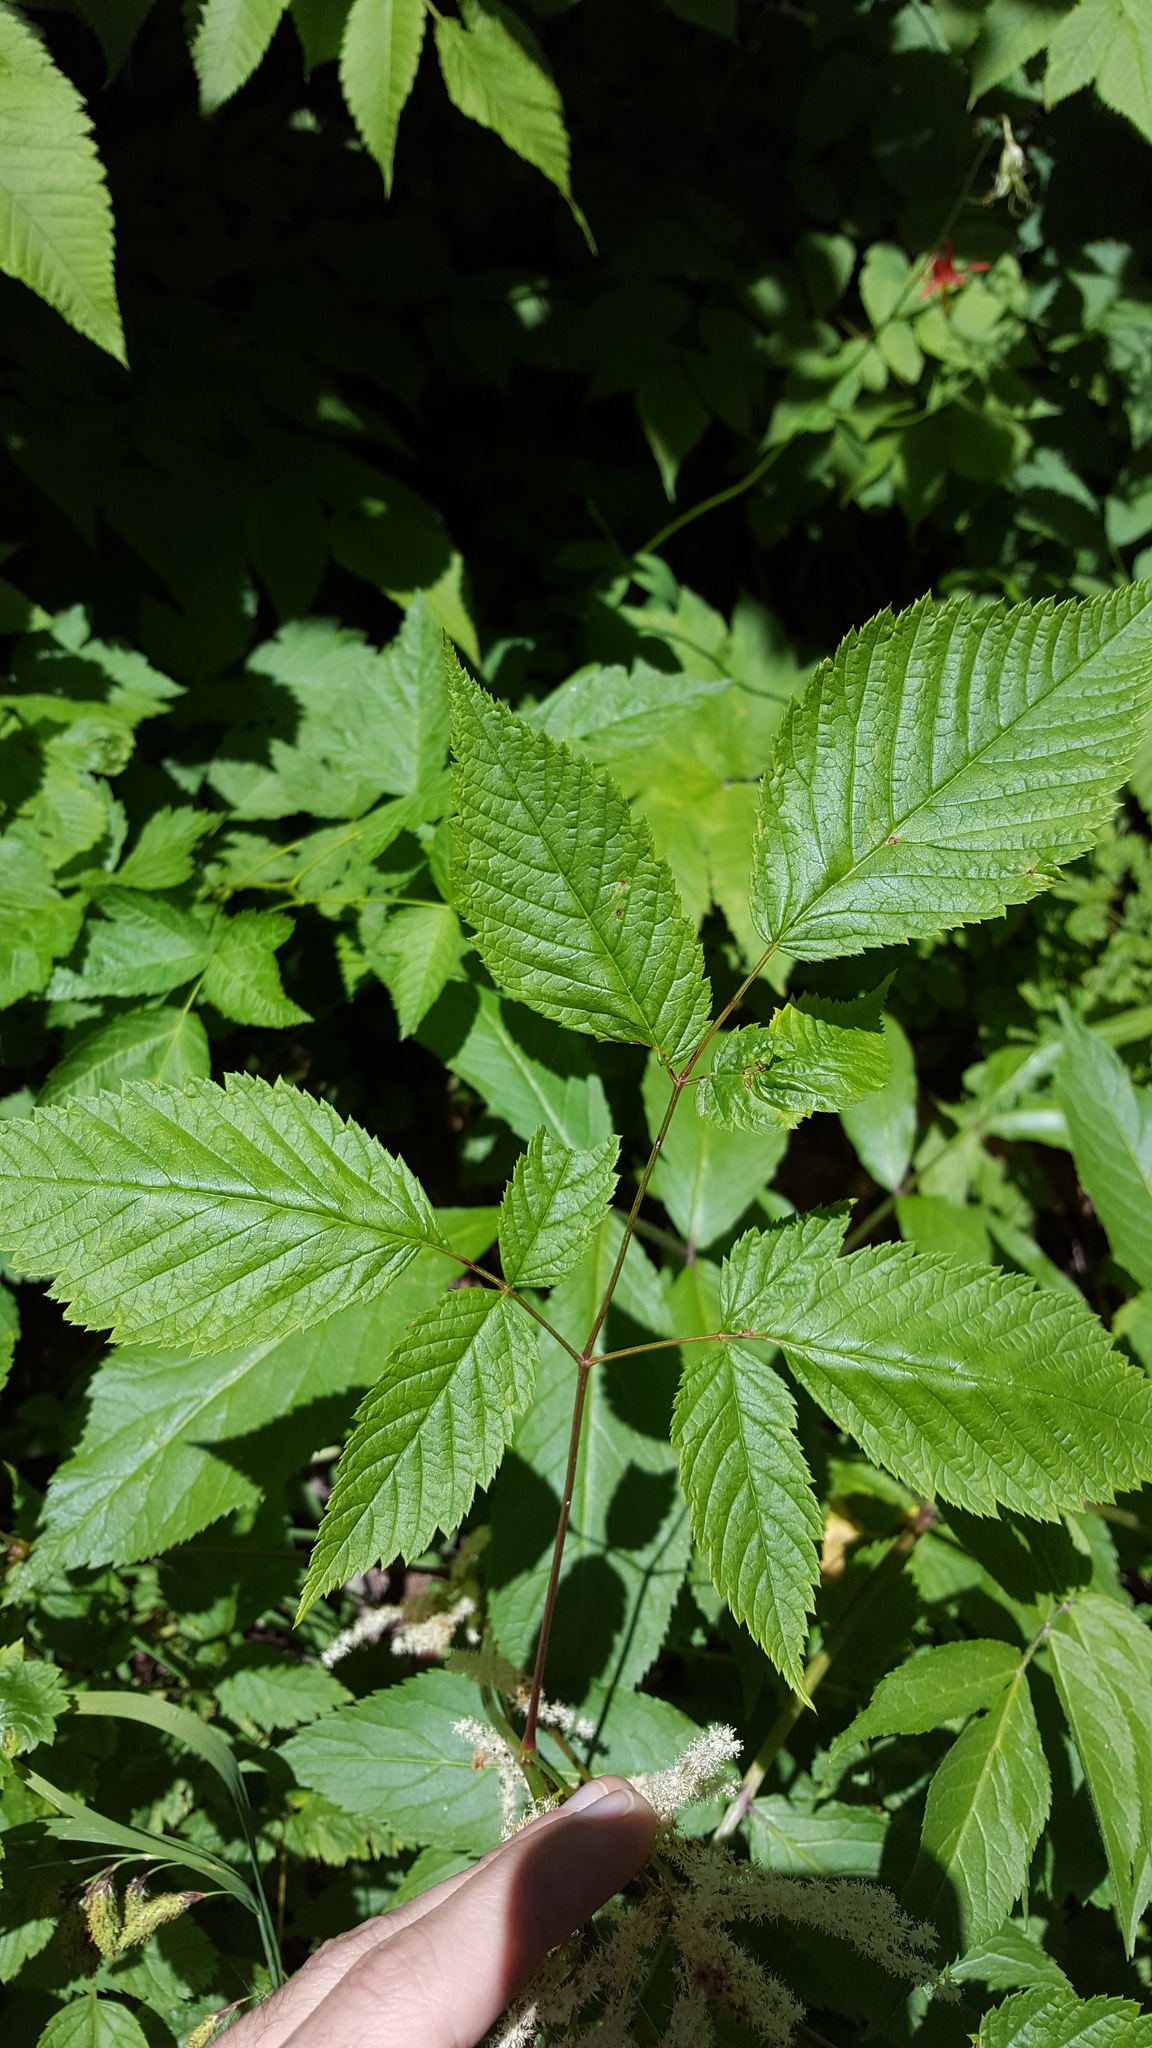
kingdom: Plantae
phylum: Tracheophyta
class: Magnoliopsida
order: Rosales
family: Rosaceae
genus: Aruncus
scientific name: Aruncus dioicus
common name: Buck's-beard
